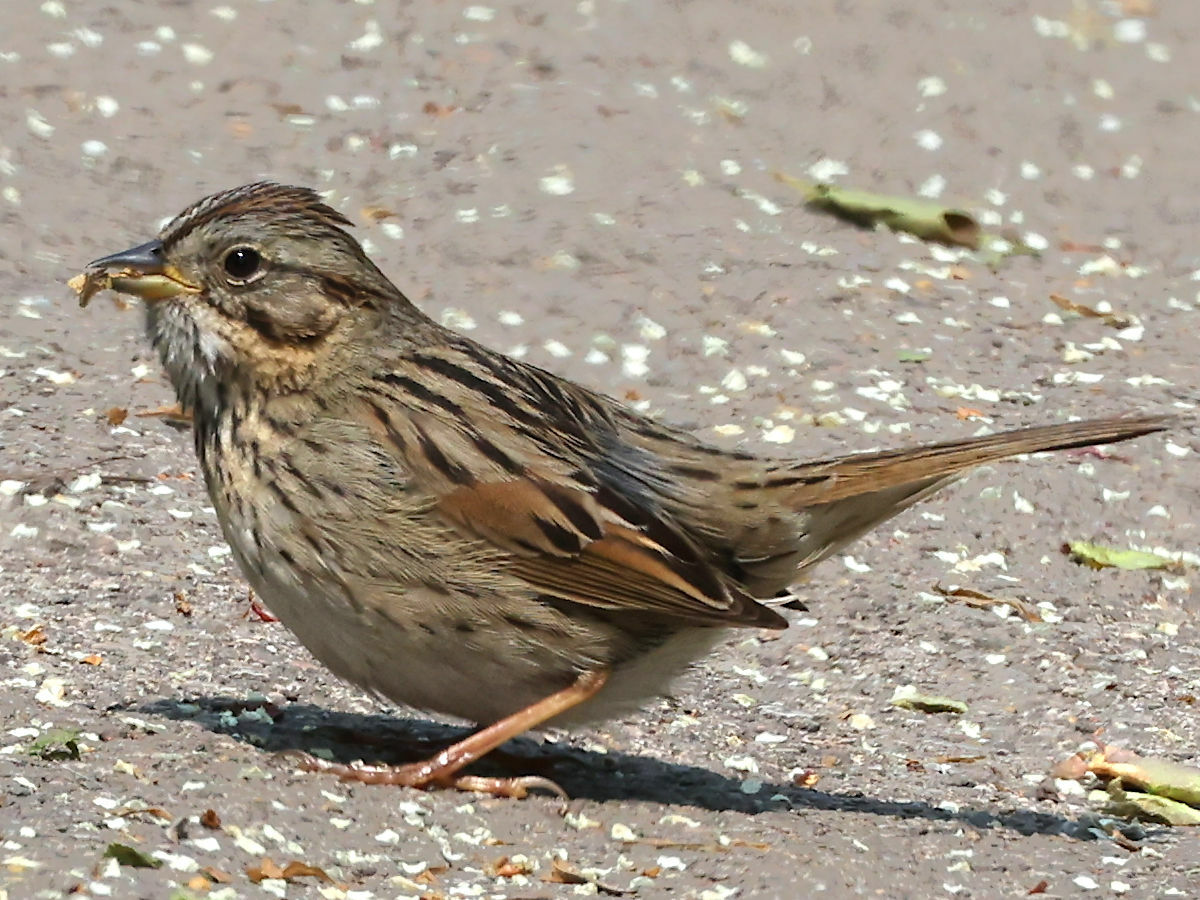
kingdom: Animalia
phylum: Chordata
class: Aves
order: Passeriformes
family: Passerellidae
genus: Melospiza
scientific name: Melospiza lincolnii
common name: Lincoln's sparrow
